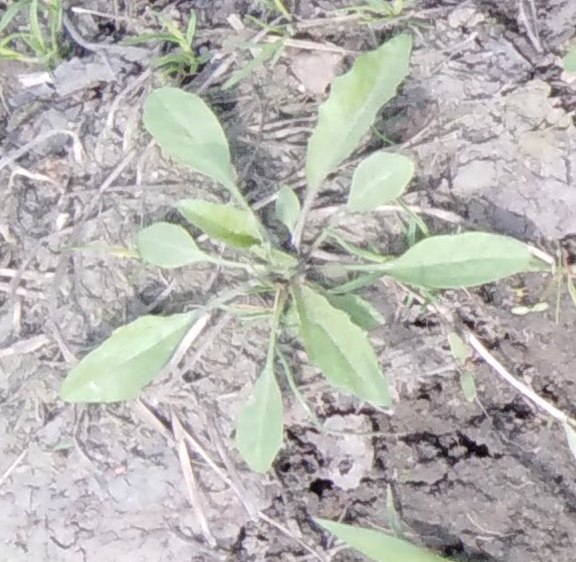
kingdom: Plantae
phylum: Tracheophyta
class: Magnoliopsida
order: Brassicales
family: Brassicaceae
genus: Capsella
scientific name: Capsella bursa-pastoris
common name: Shepherd's purse
